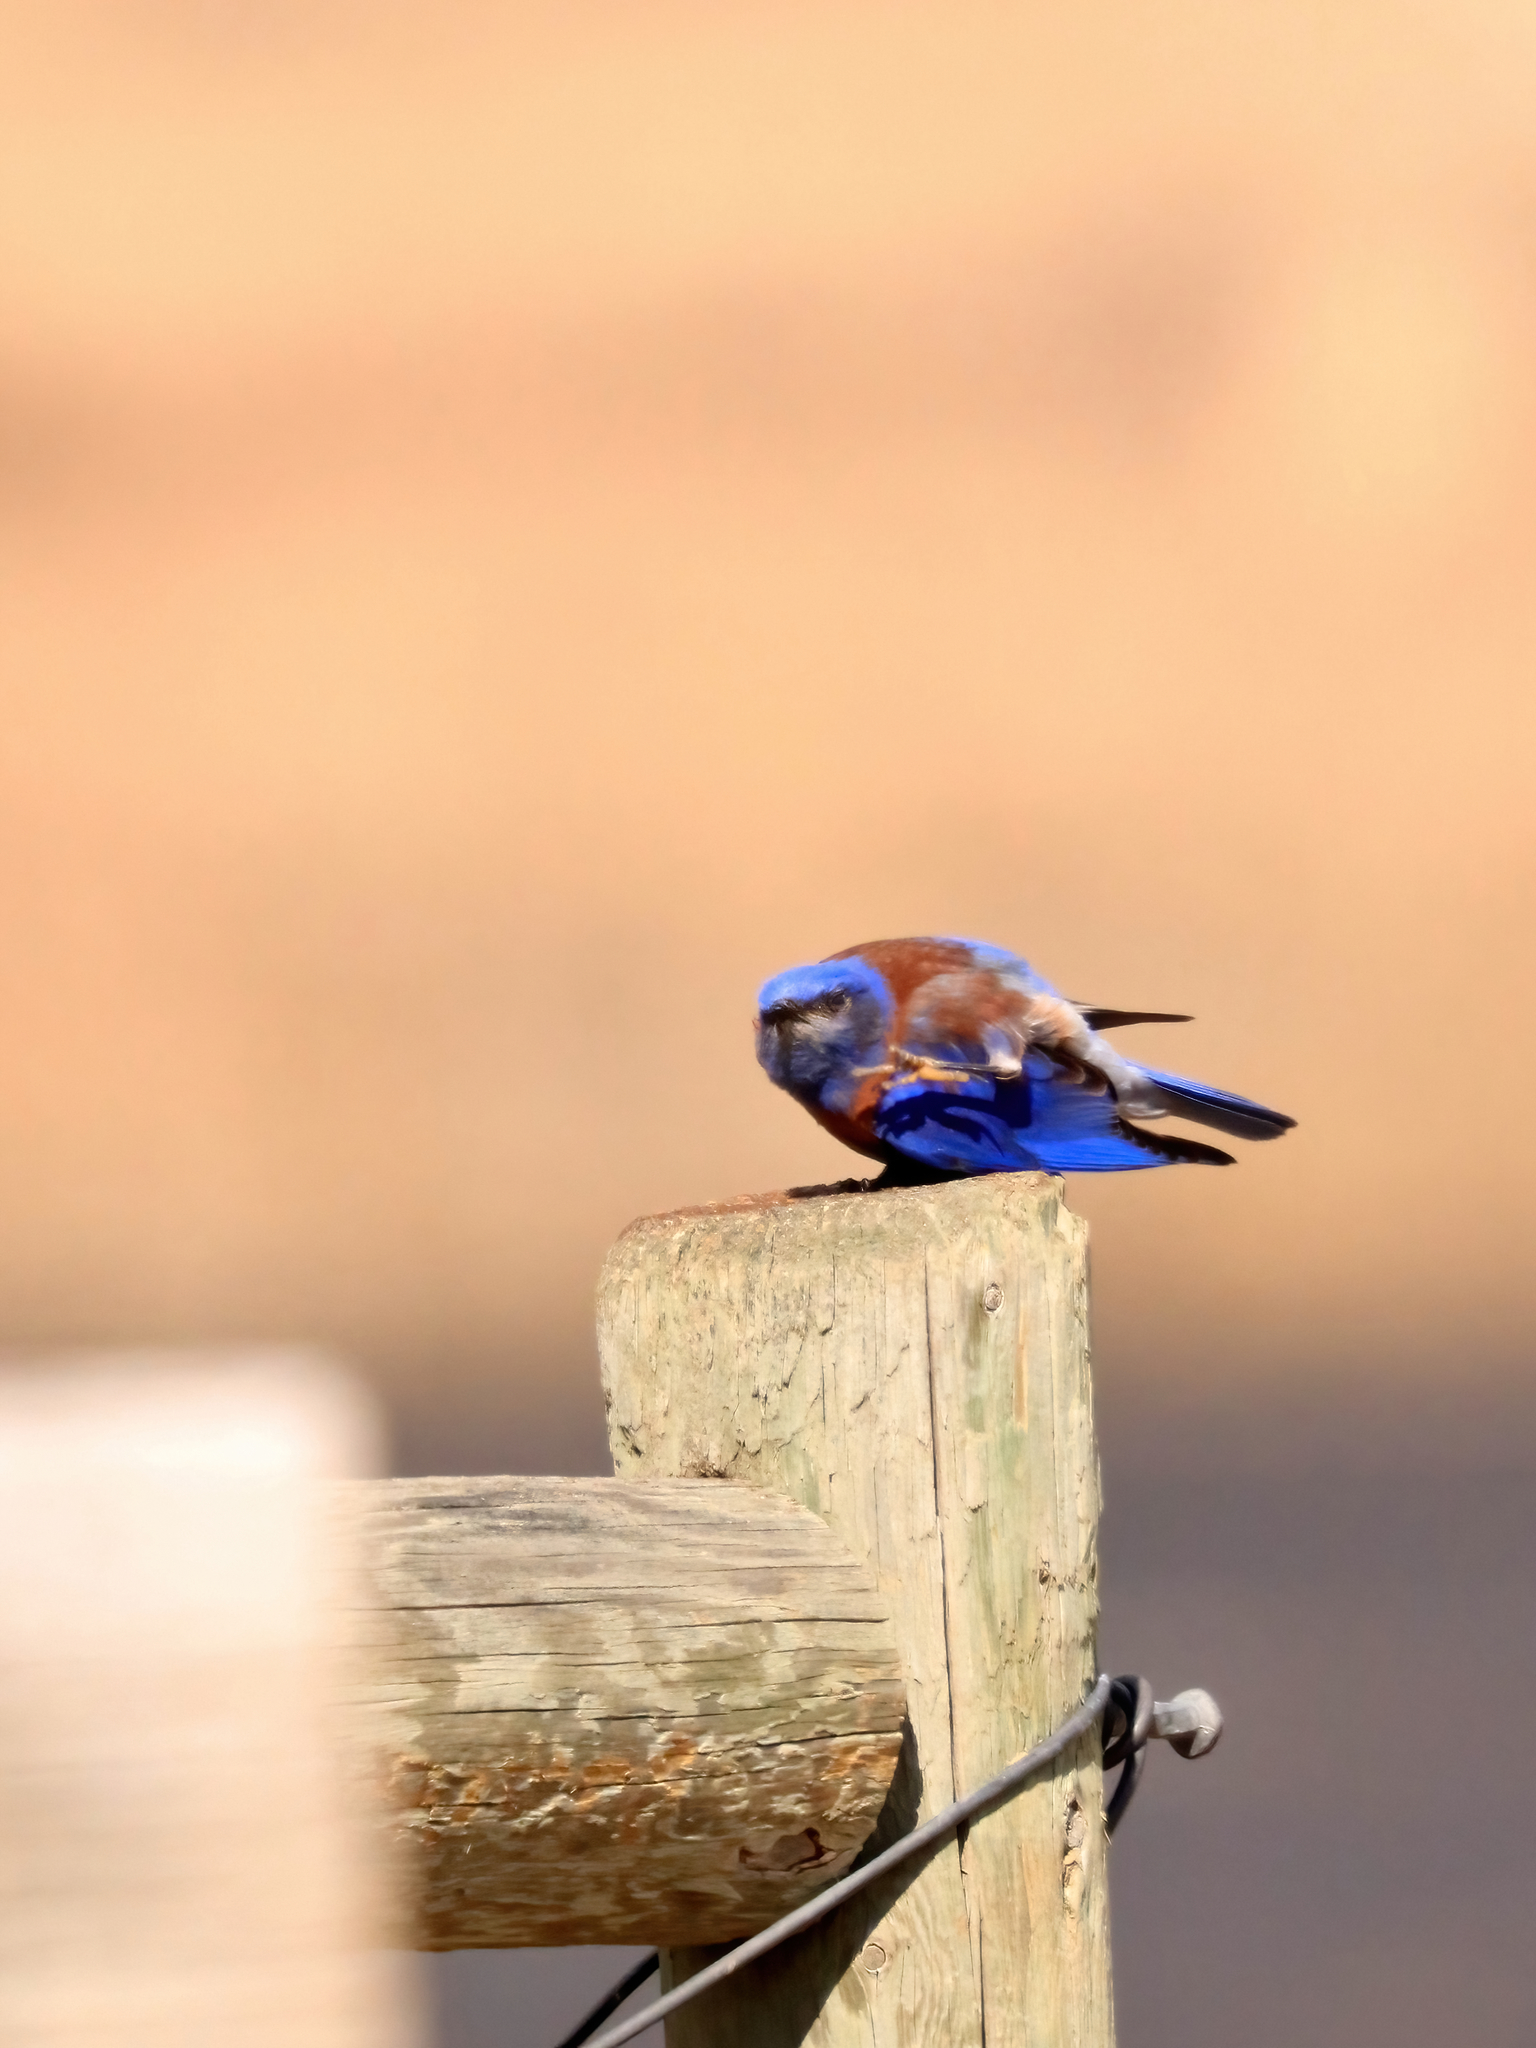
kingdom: Animalia
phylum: Chordata
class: Aves
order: Passeriformes
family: Turdidae
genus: Sialia
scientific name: Sialia mexicana
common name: Western bluebird
